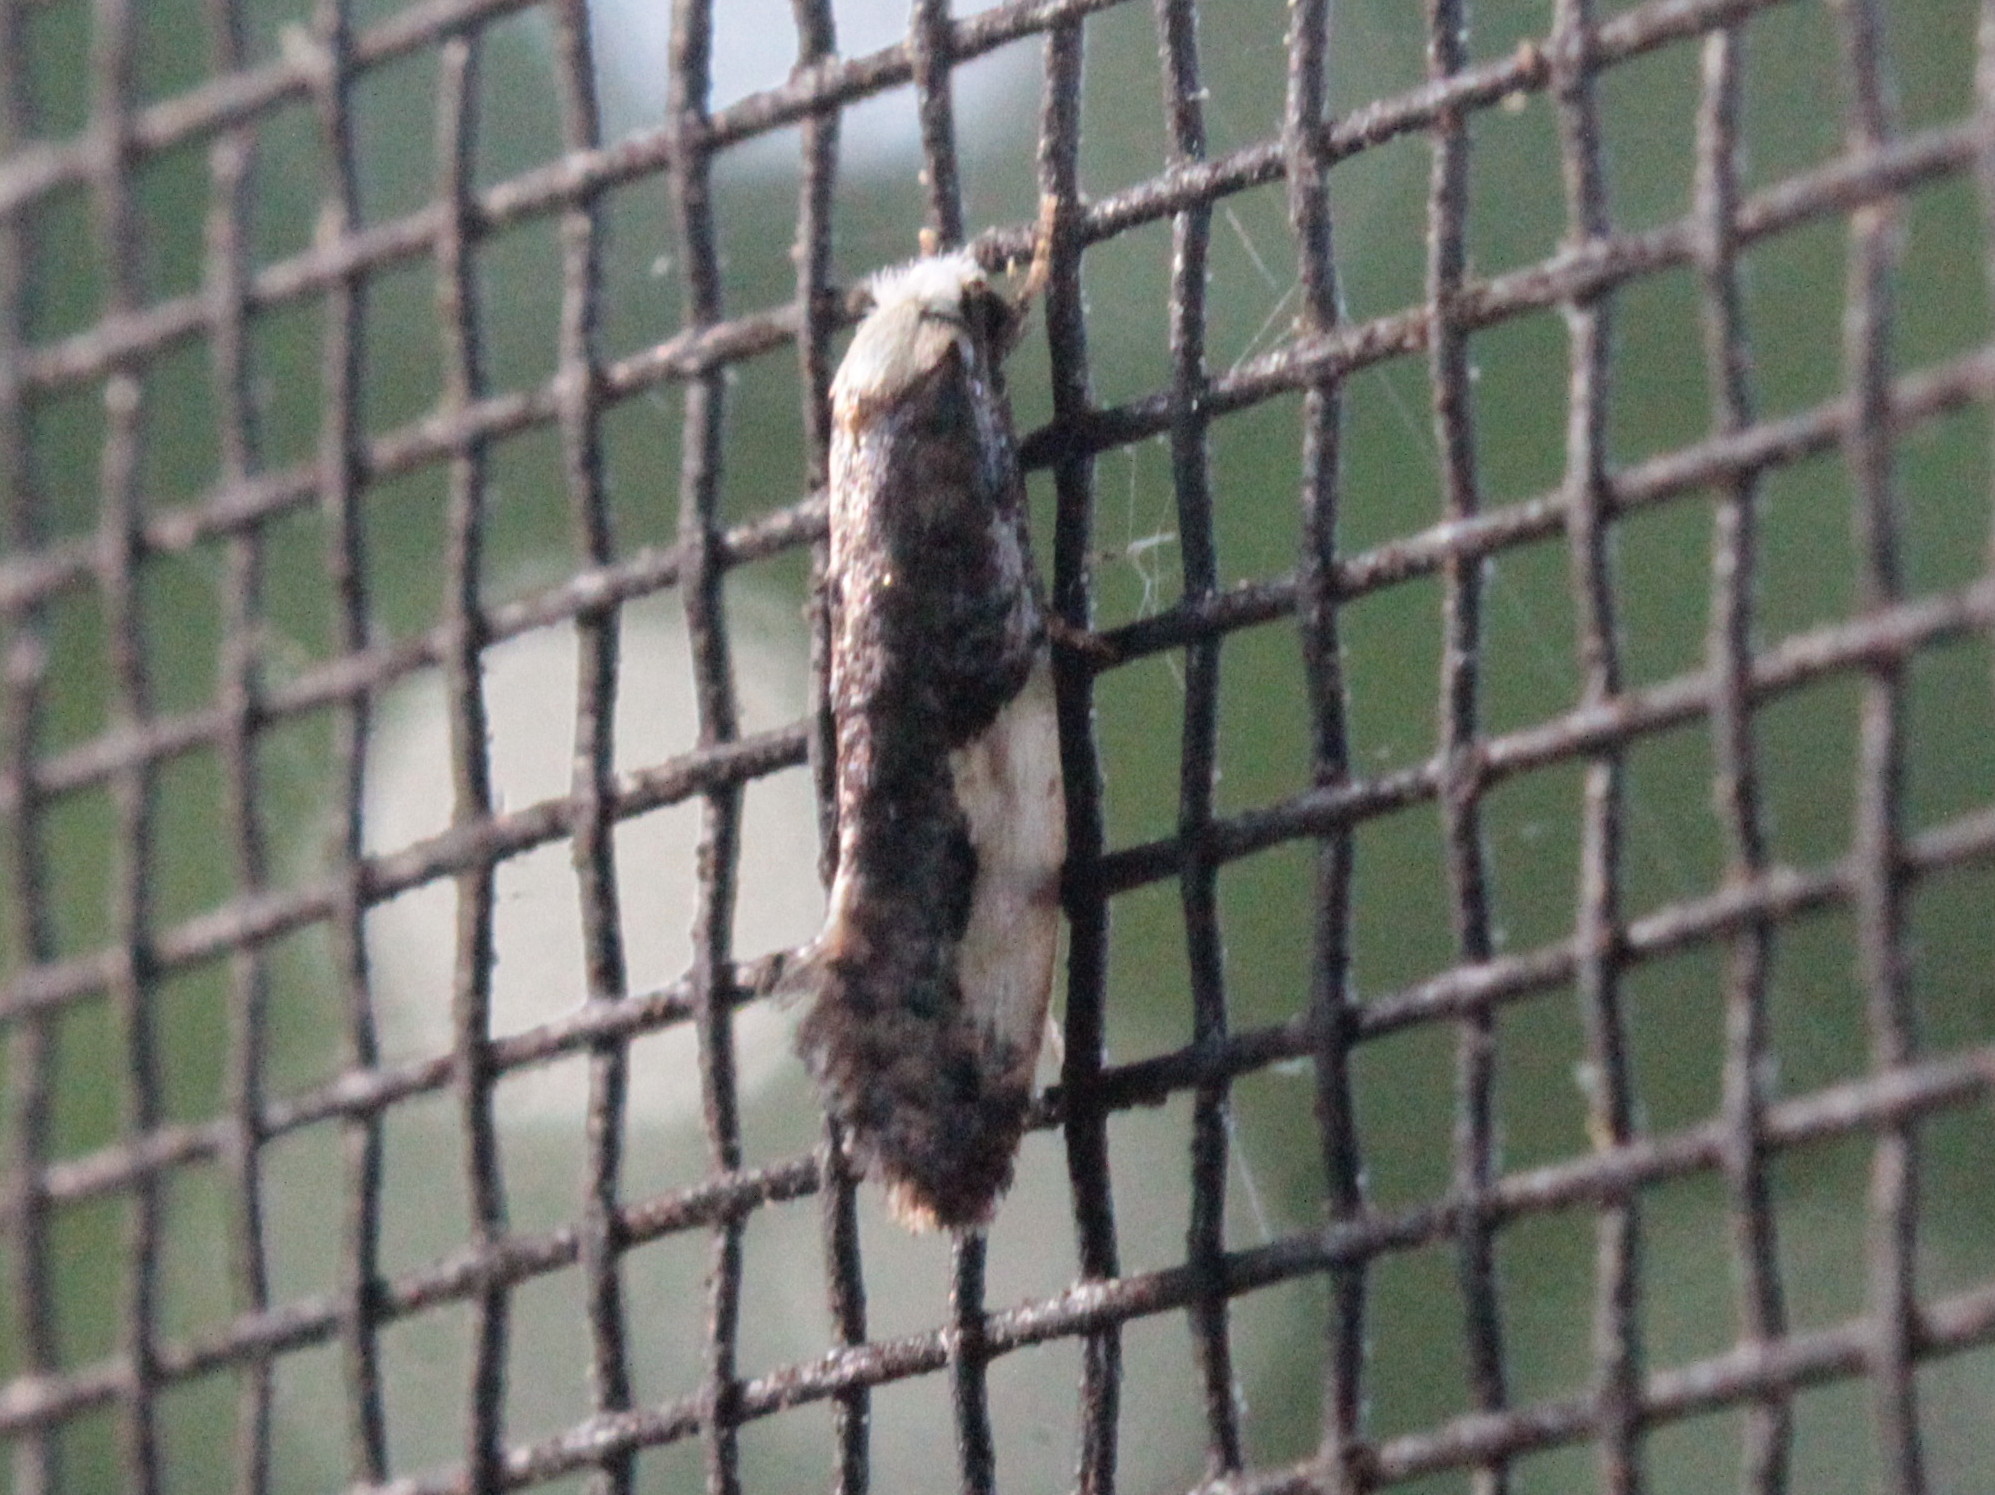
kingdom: Animalia
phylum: Arthropoda
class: Insecta
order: Lepidoptera
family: Tineidae
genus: Monopis
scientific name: Monopis monachella
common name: Moth
